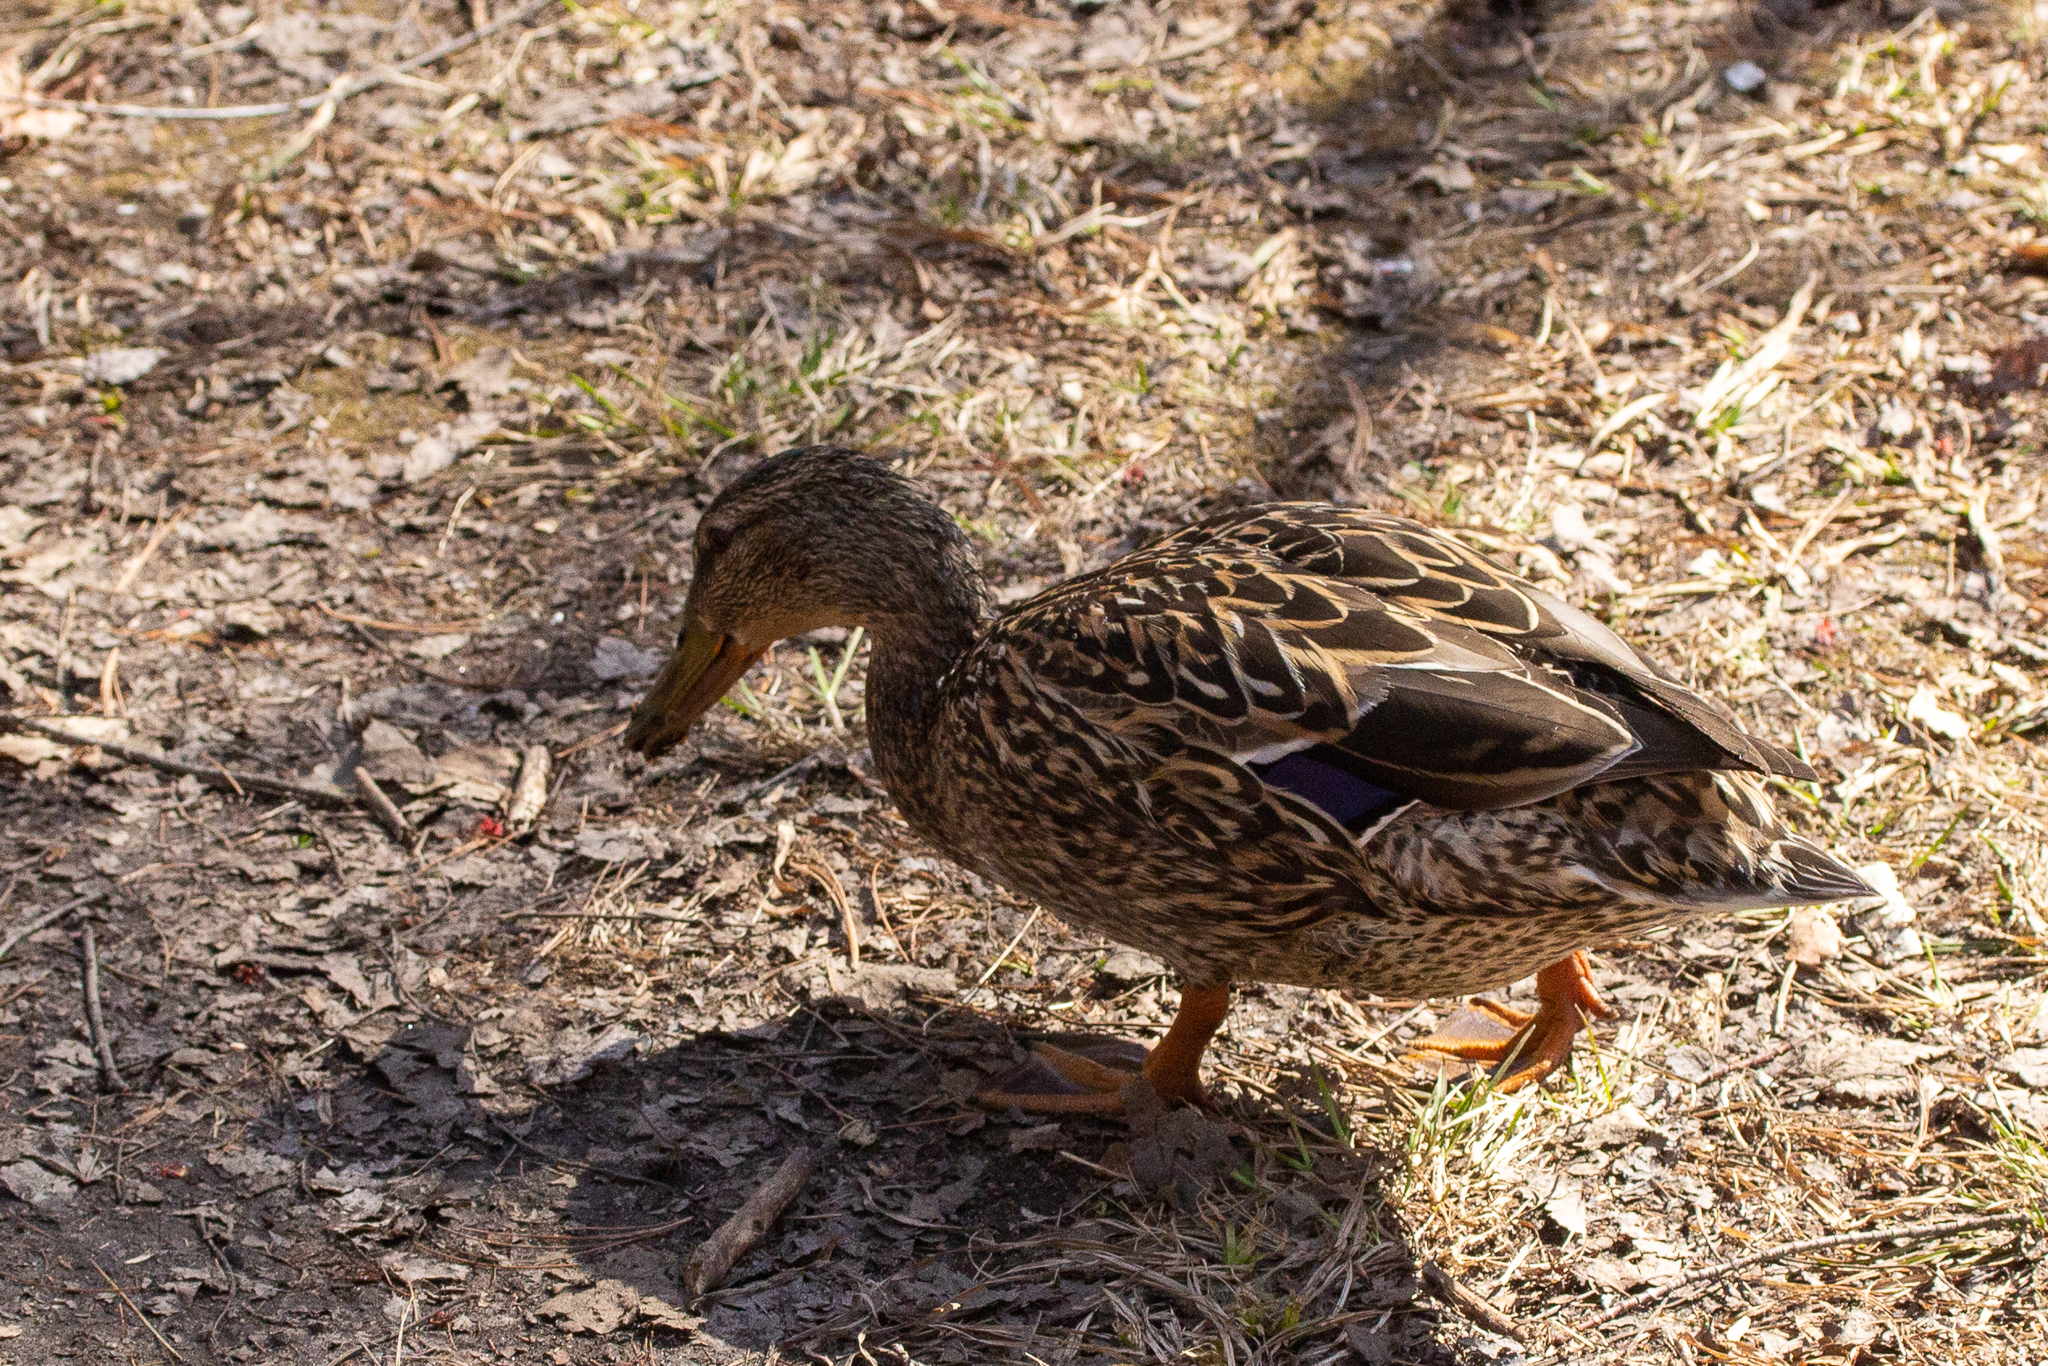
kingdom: Animalia
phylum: Chordata
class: Aves
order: Anseriformes
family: Anatidae
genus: Anas
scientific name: Anas platyrhynchos
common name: Mallard
